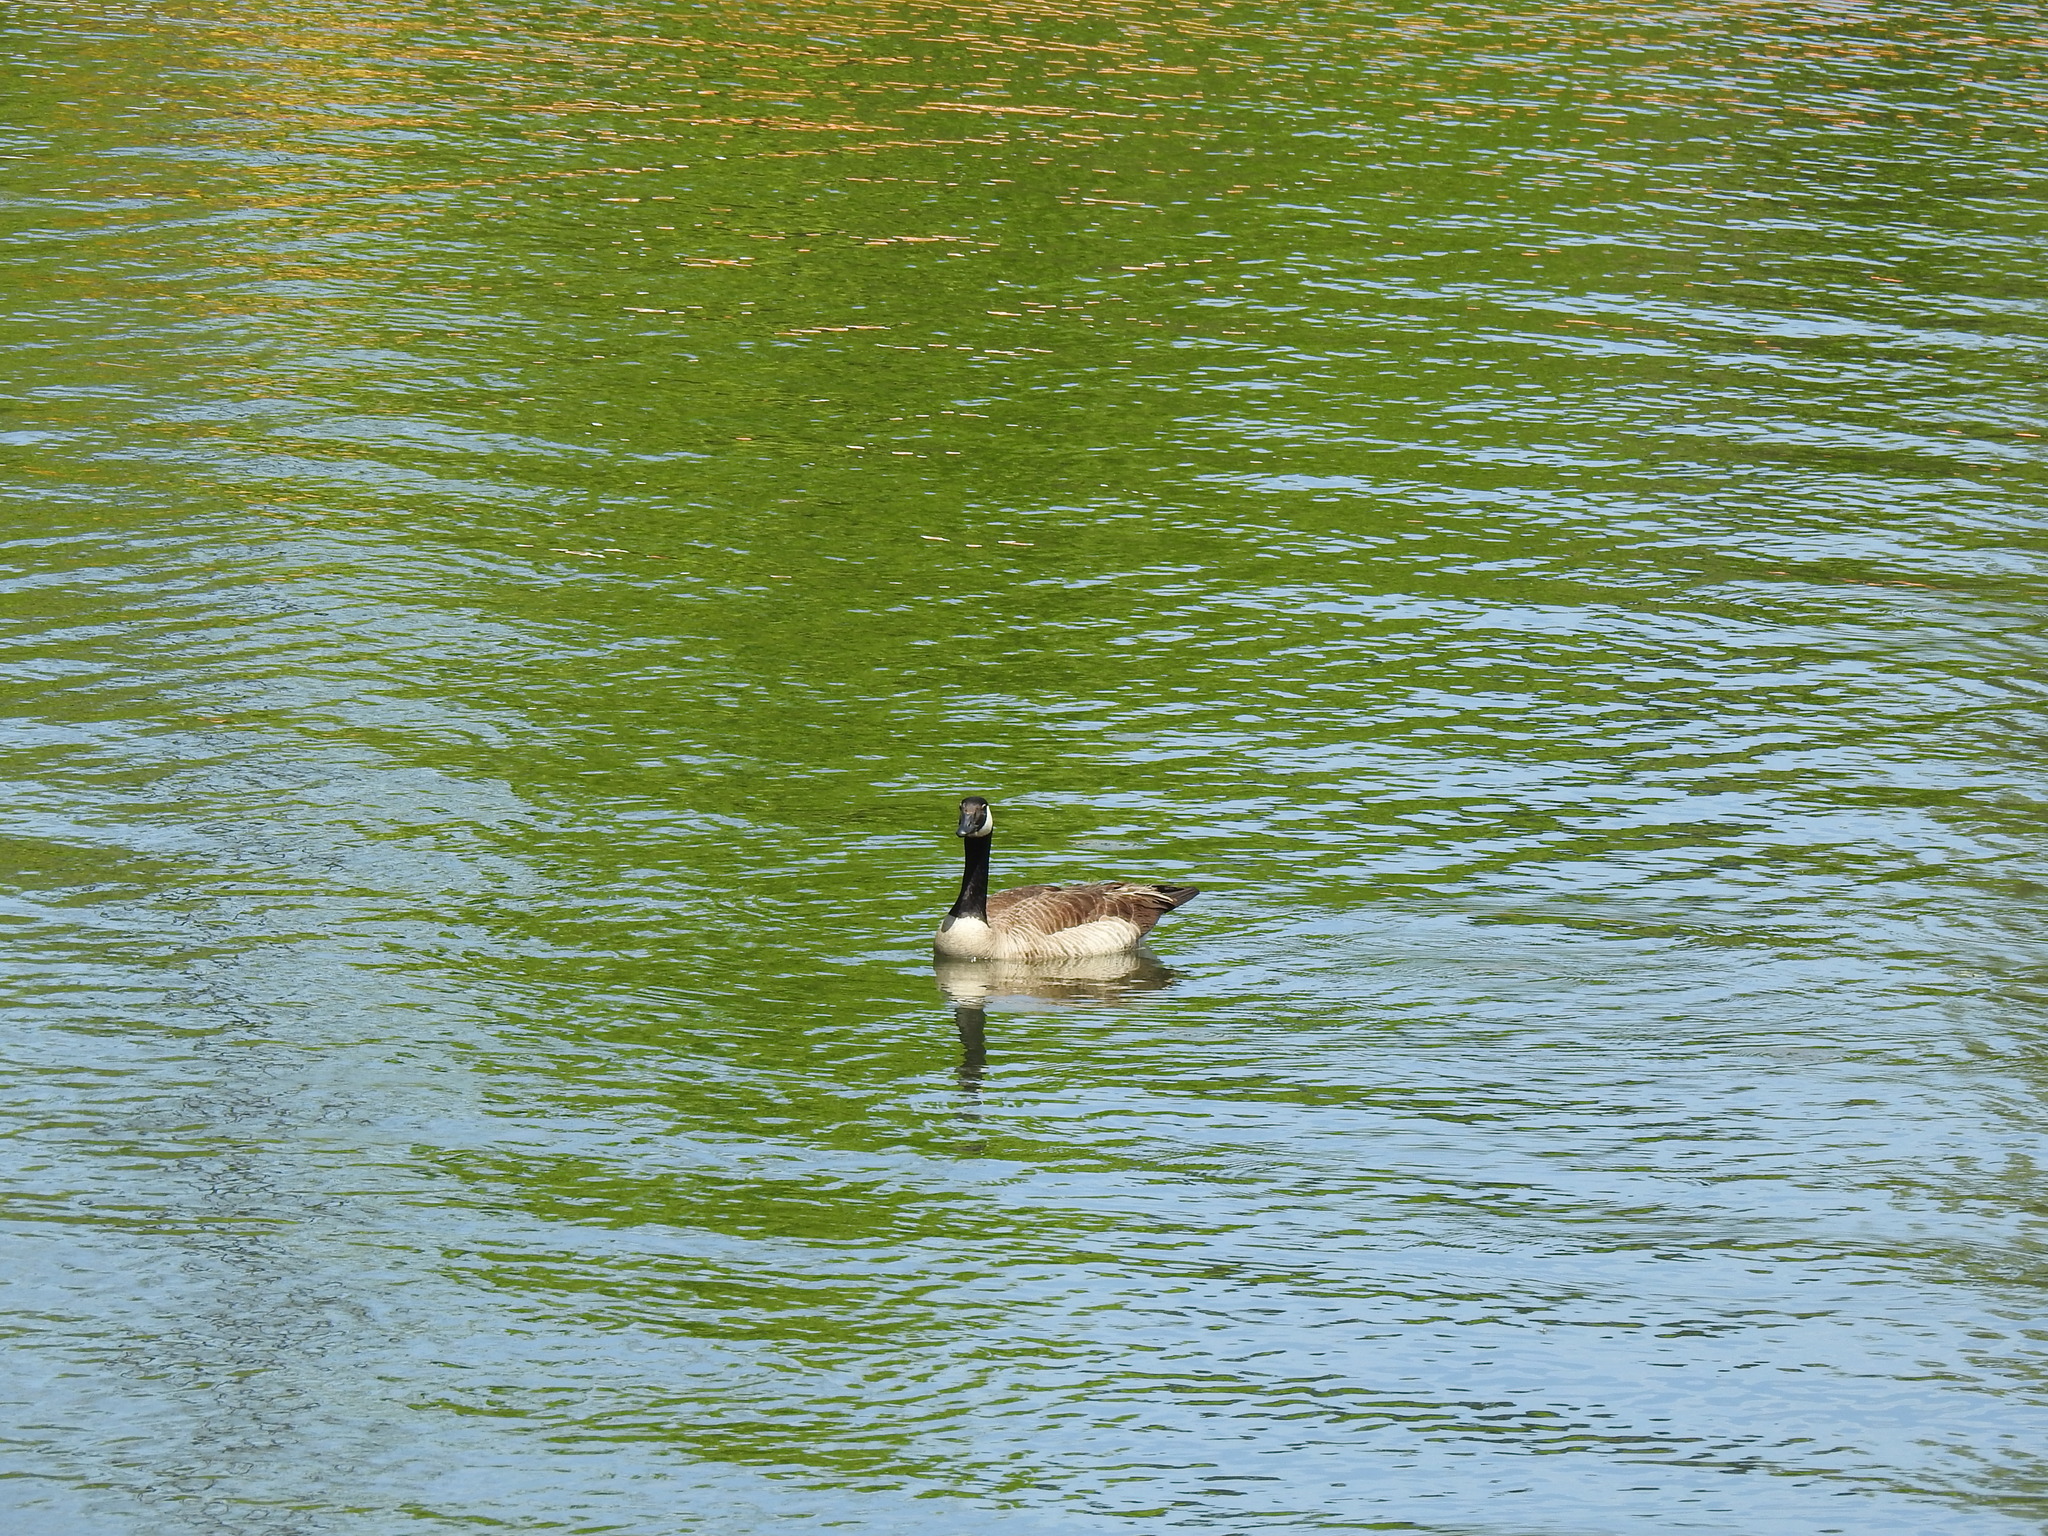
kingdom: Animalia
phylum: Chordata
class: Aves
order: Anseriformes
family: Anatidae
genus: Branta
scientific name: Branta canadensis
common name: Canada goose
